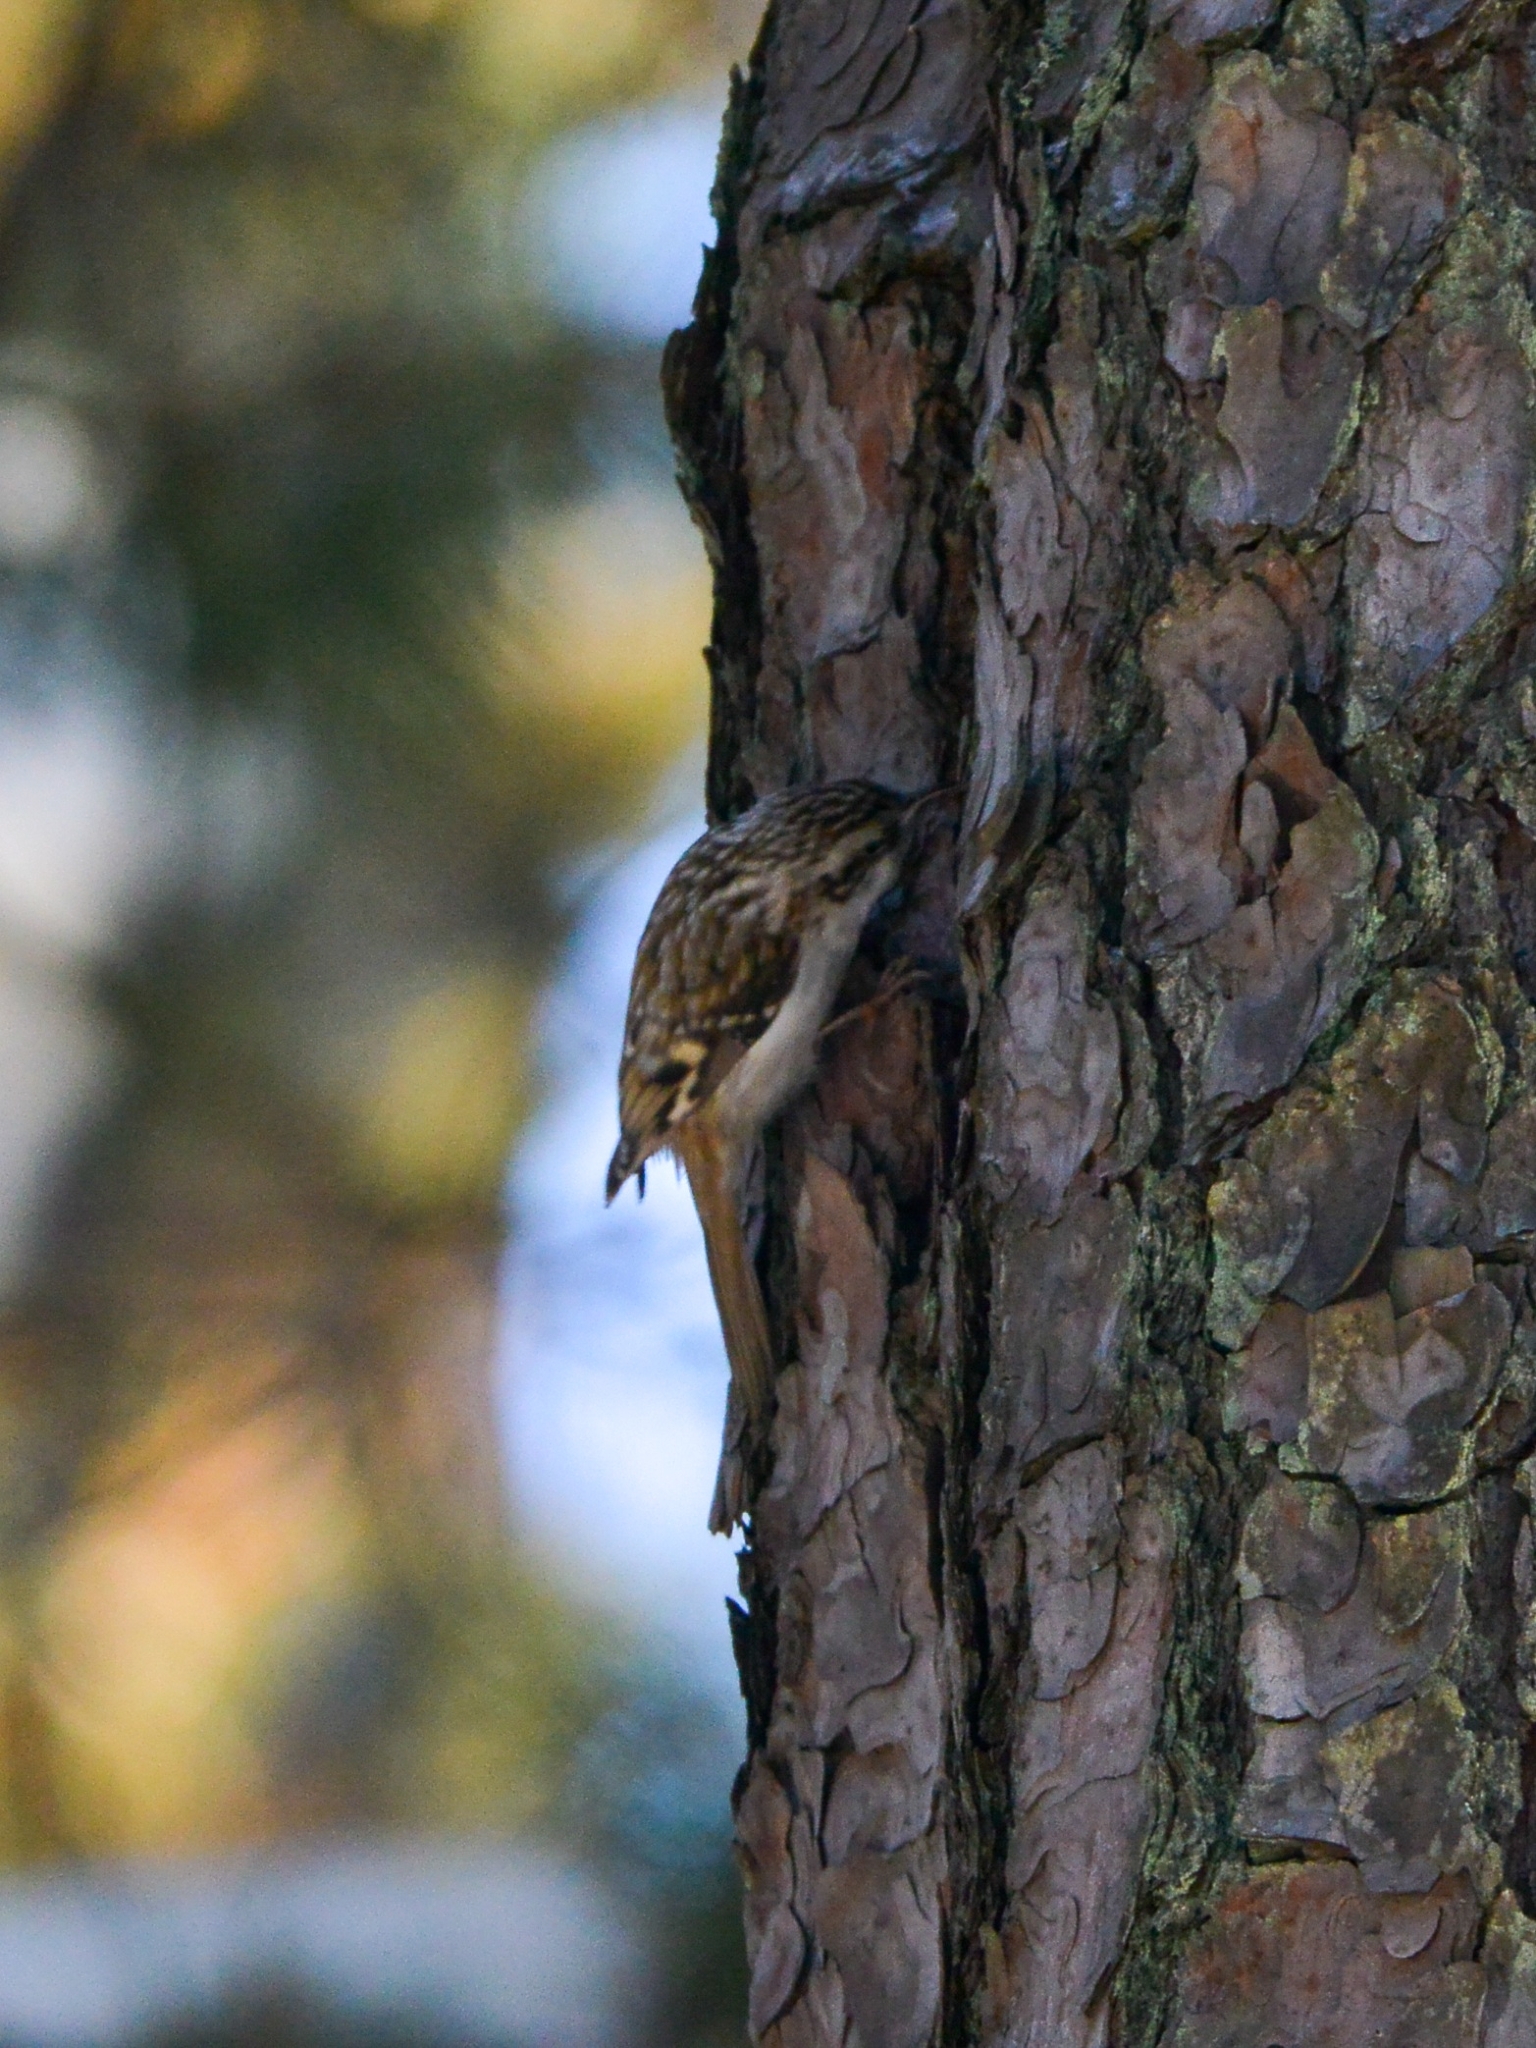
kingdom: Animalia
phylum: Chordata
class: Aves
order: Passeriformes
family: Certhiidae
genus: Certhia
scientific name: Certhia familiaris
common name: Eurasian treecreeper
